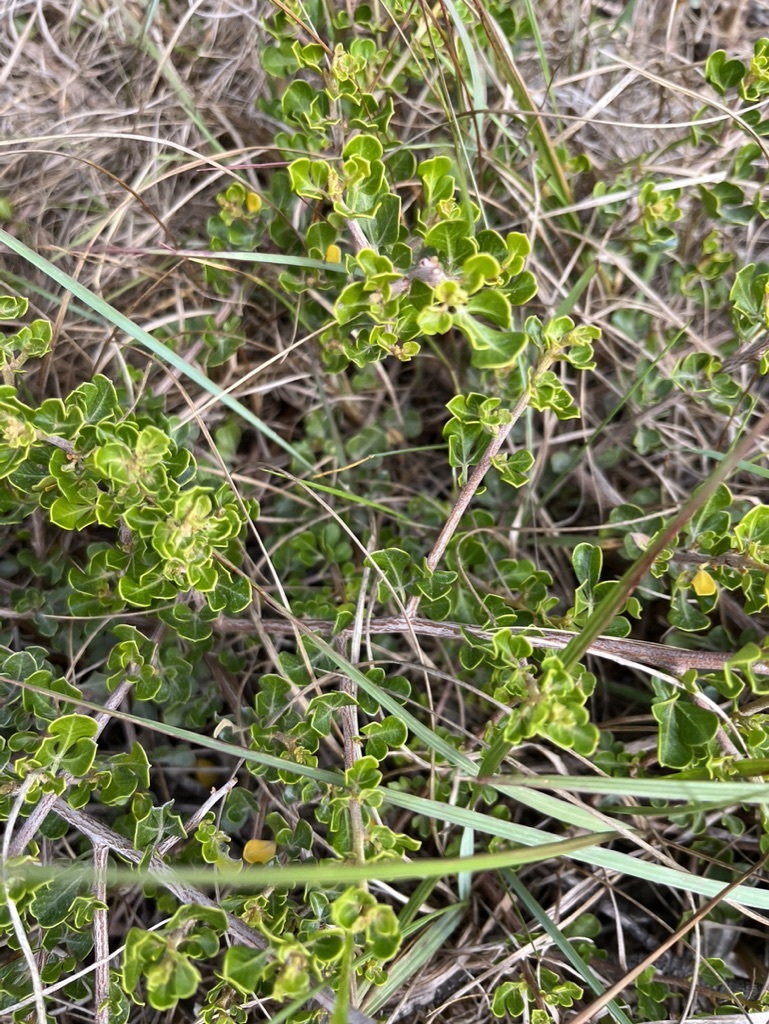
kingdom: Plantae
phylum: Tracheophyta
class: Magnoliopsida
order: Sapindales
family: Anacardiaceae
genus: Searsia
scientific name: Searsia glauca
